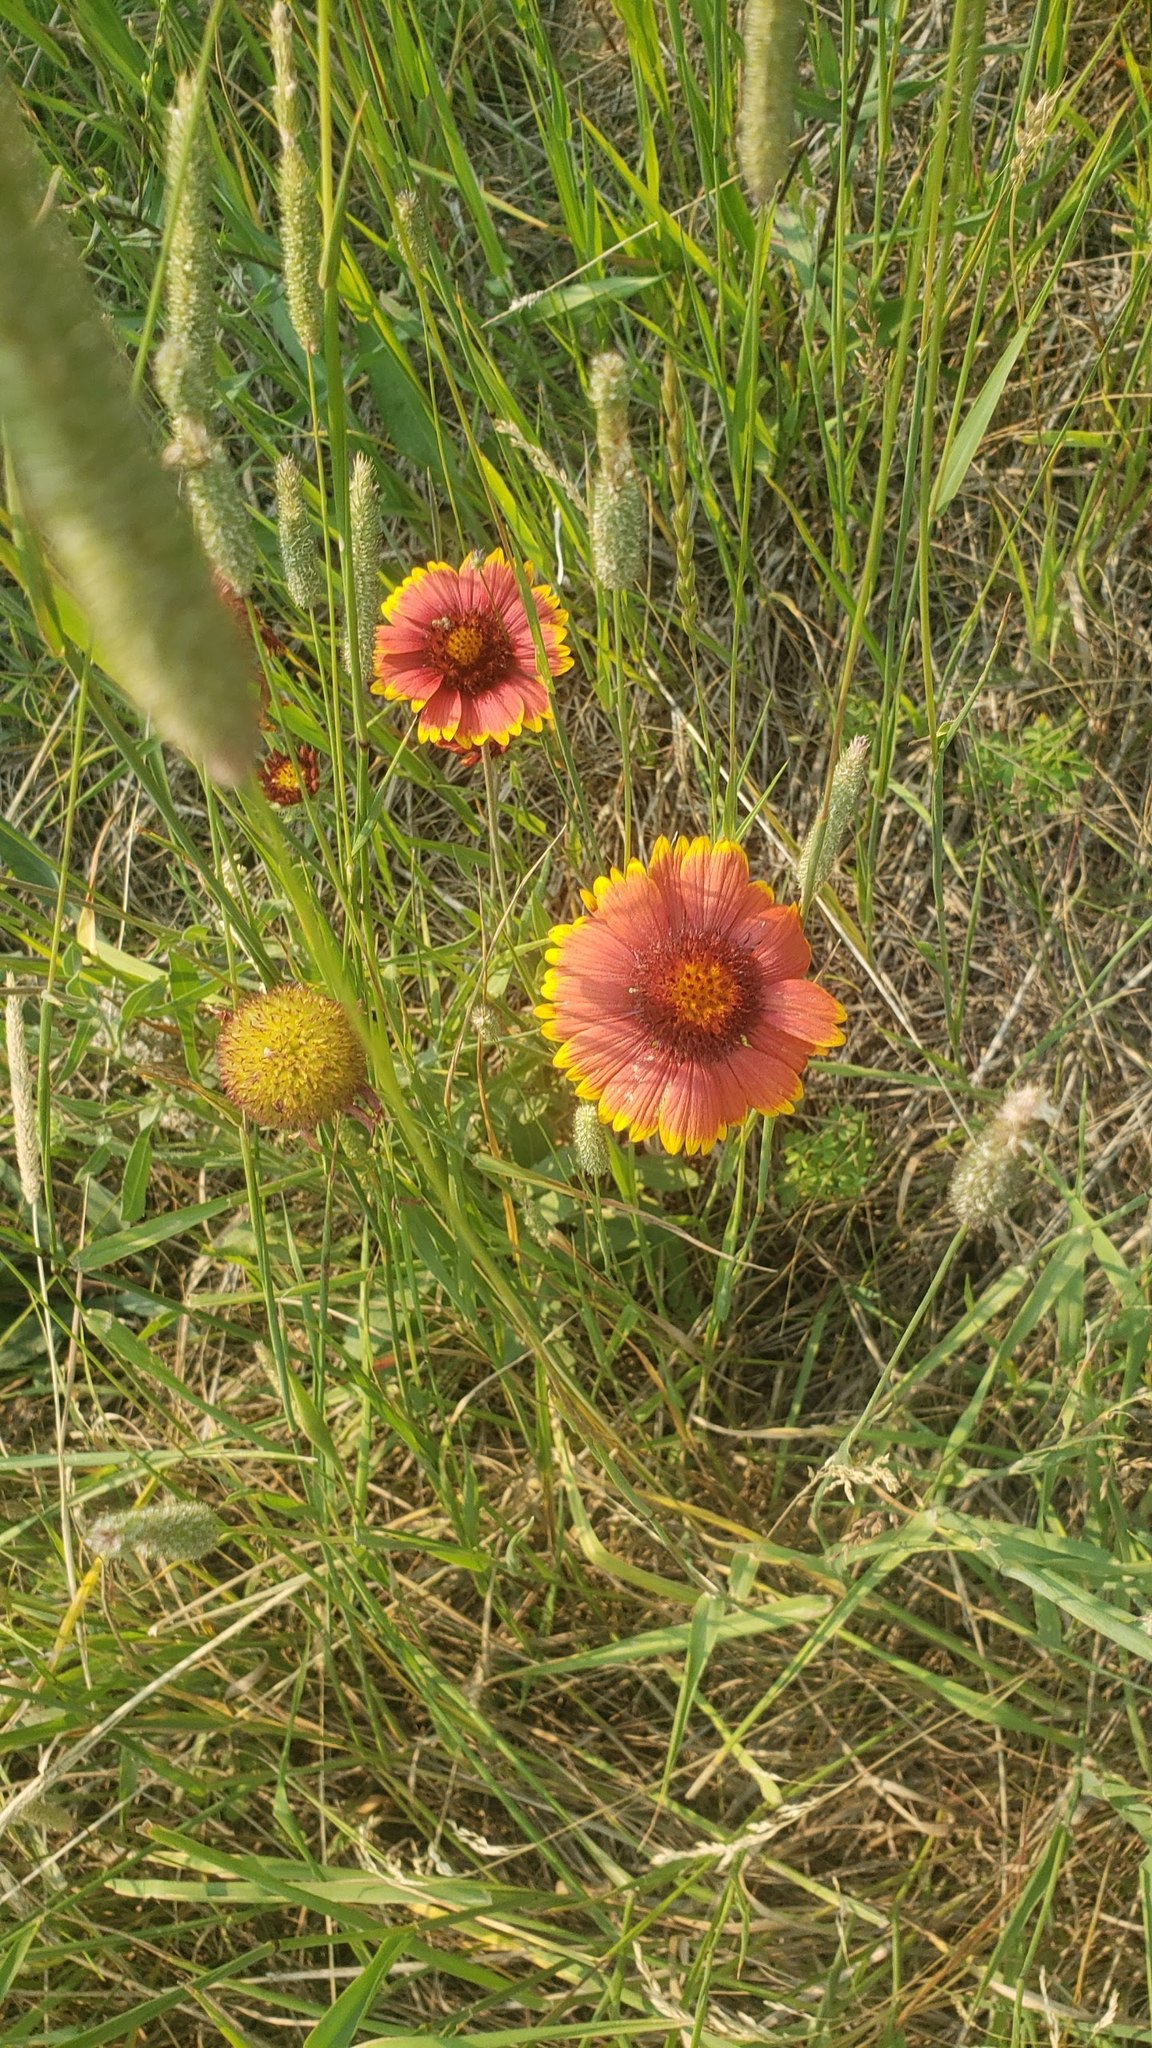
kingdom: Plantae
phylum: Tracheophyta
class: Magnoliopsida
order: Asterales
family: Asteraceae
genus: Gaillardia
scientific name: Gaillardia pulchella
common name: Firewheel
